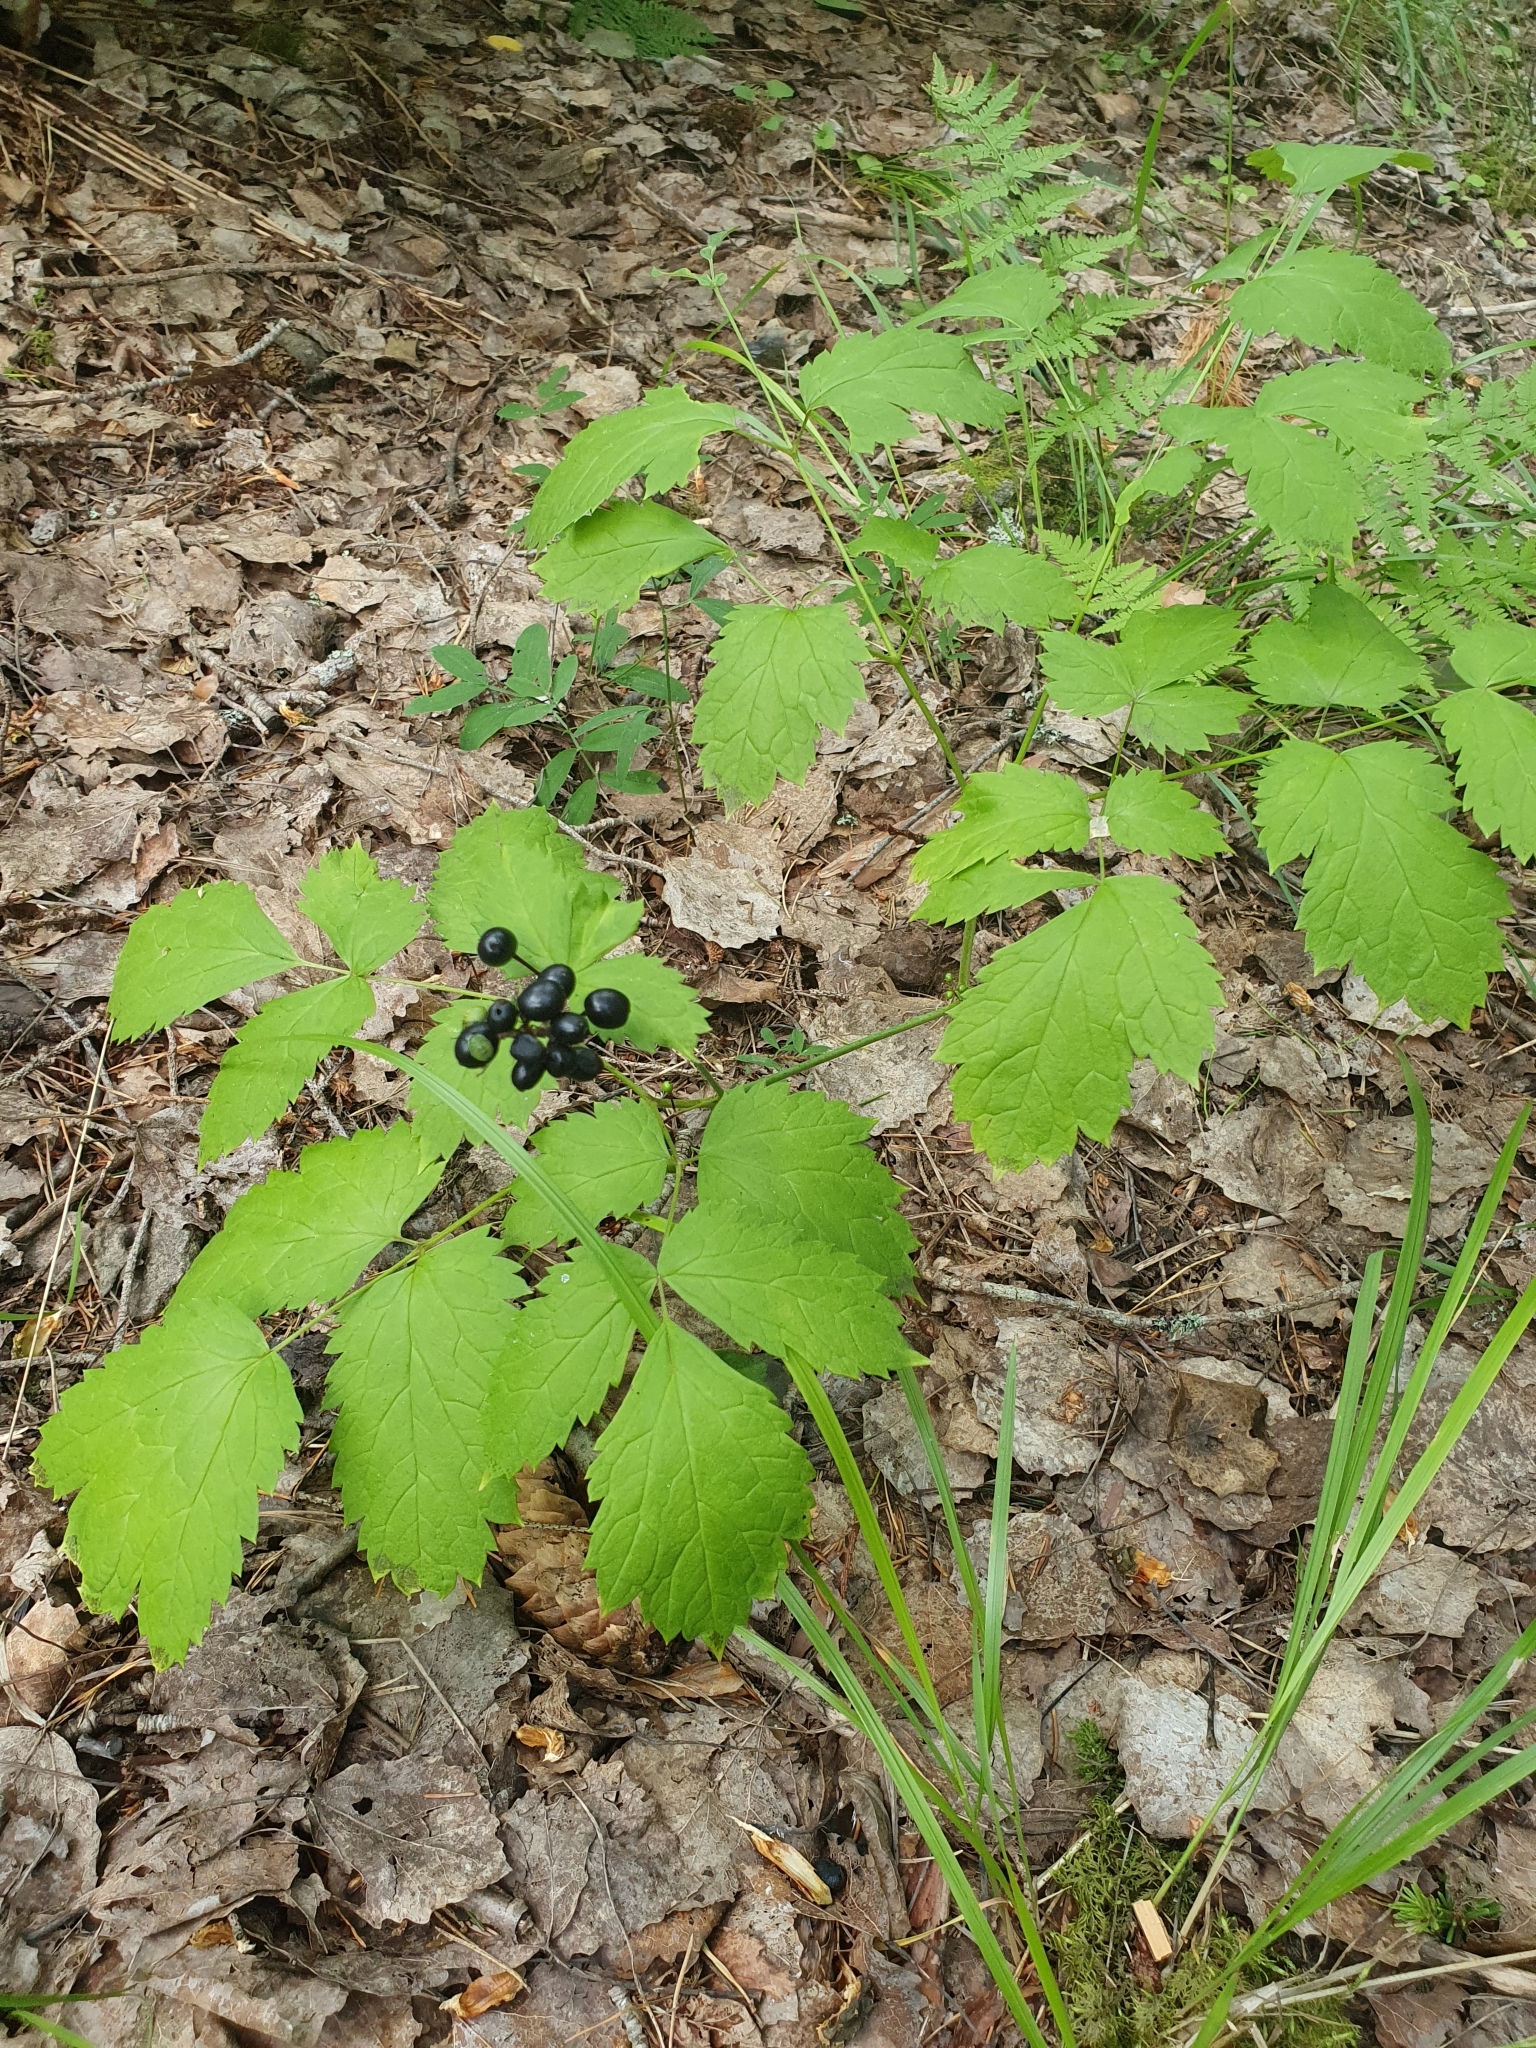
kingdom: Plantae
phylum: Tracheophyta
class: Magnoliopsida
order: Ranunculales
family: Ranunculaceae
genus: Actaea
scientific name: Actaea spicata
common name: Baneberry
